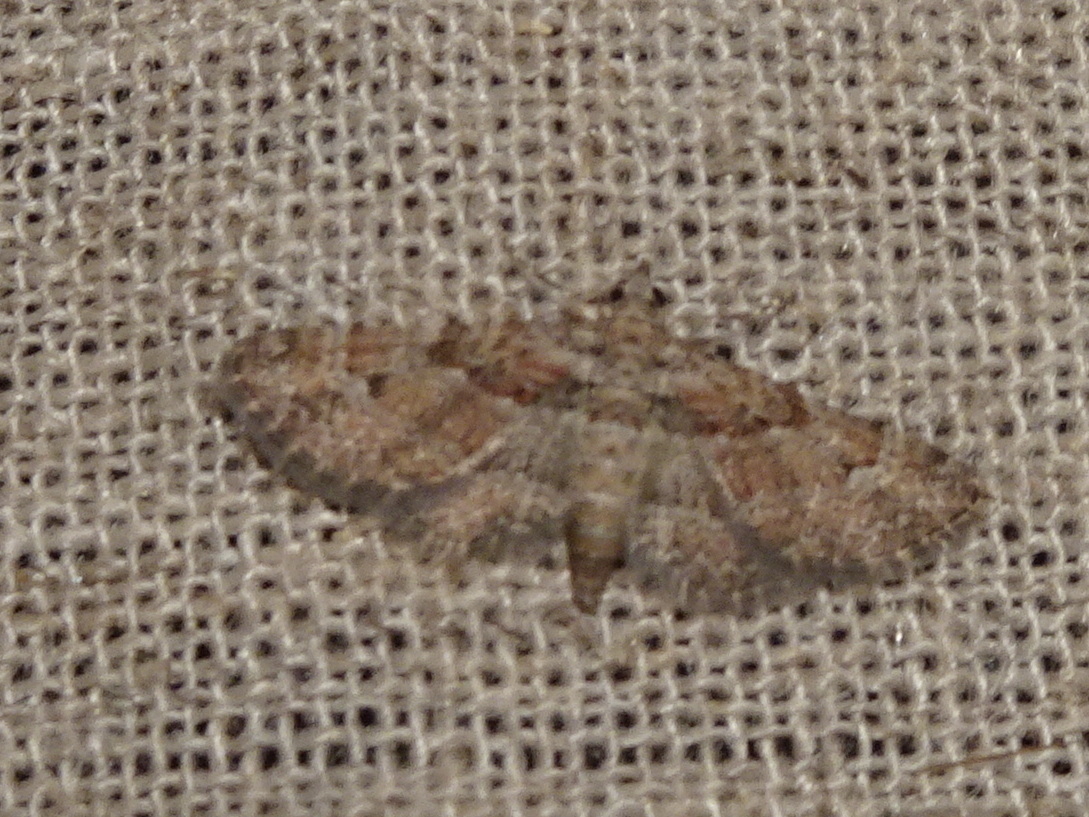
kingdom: Animalia
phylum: Arthropoda
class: Insecta
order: Lepidoptera
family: Geometridae
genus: Gymnoscelis
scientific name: Gymnoscelis rufifasciata
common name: Double-striped pug
